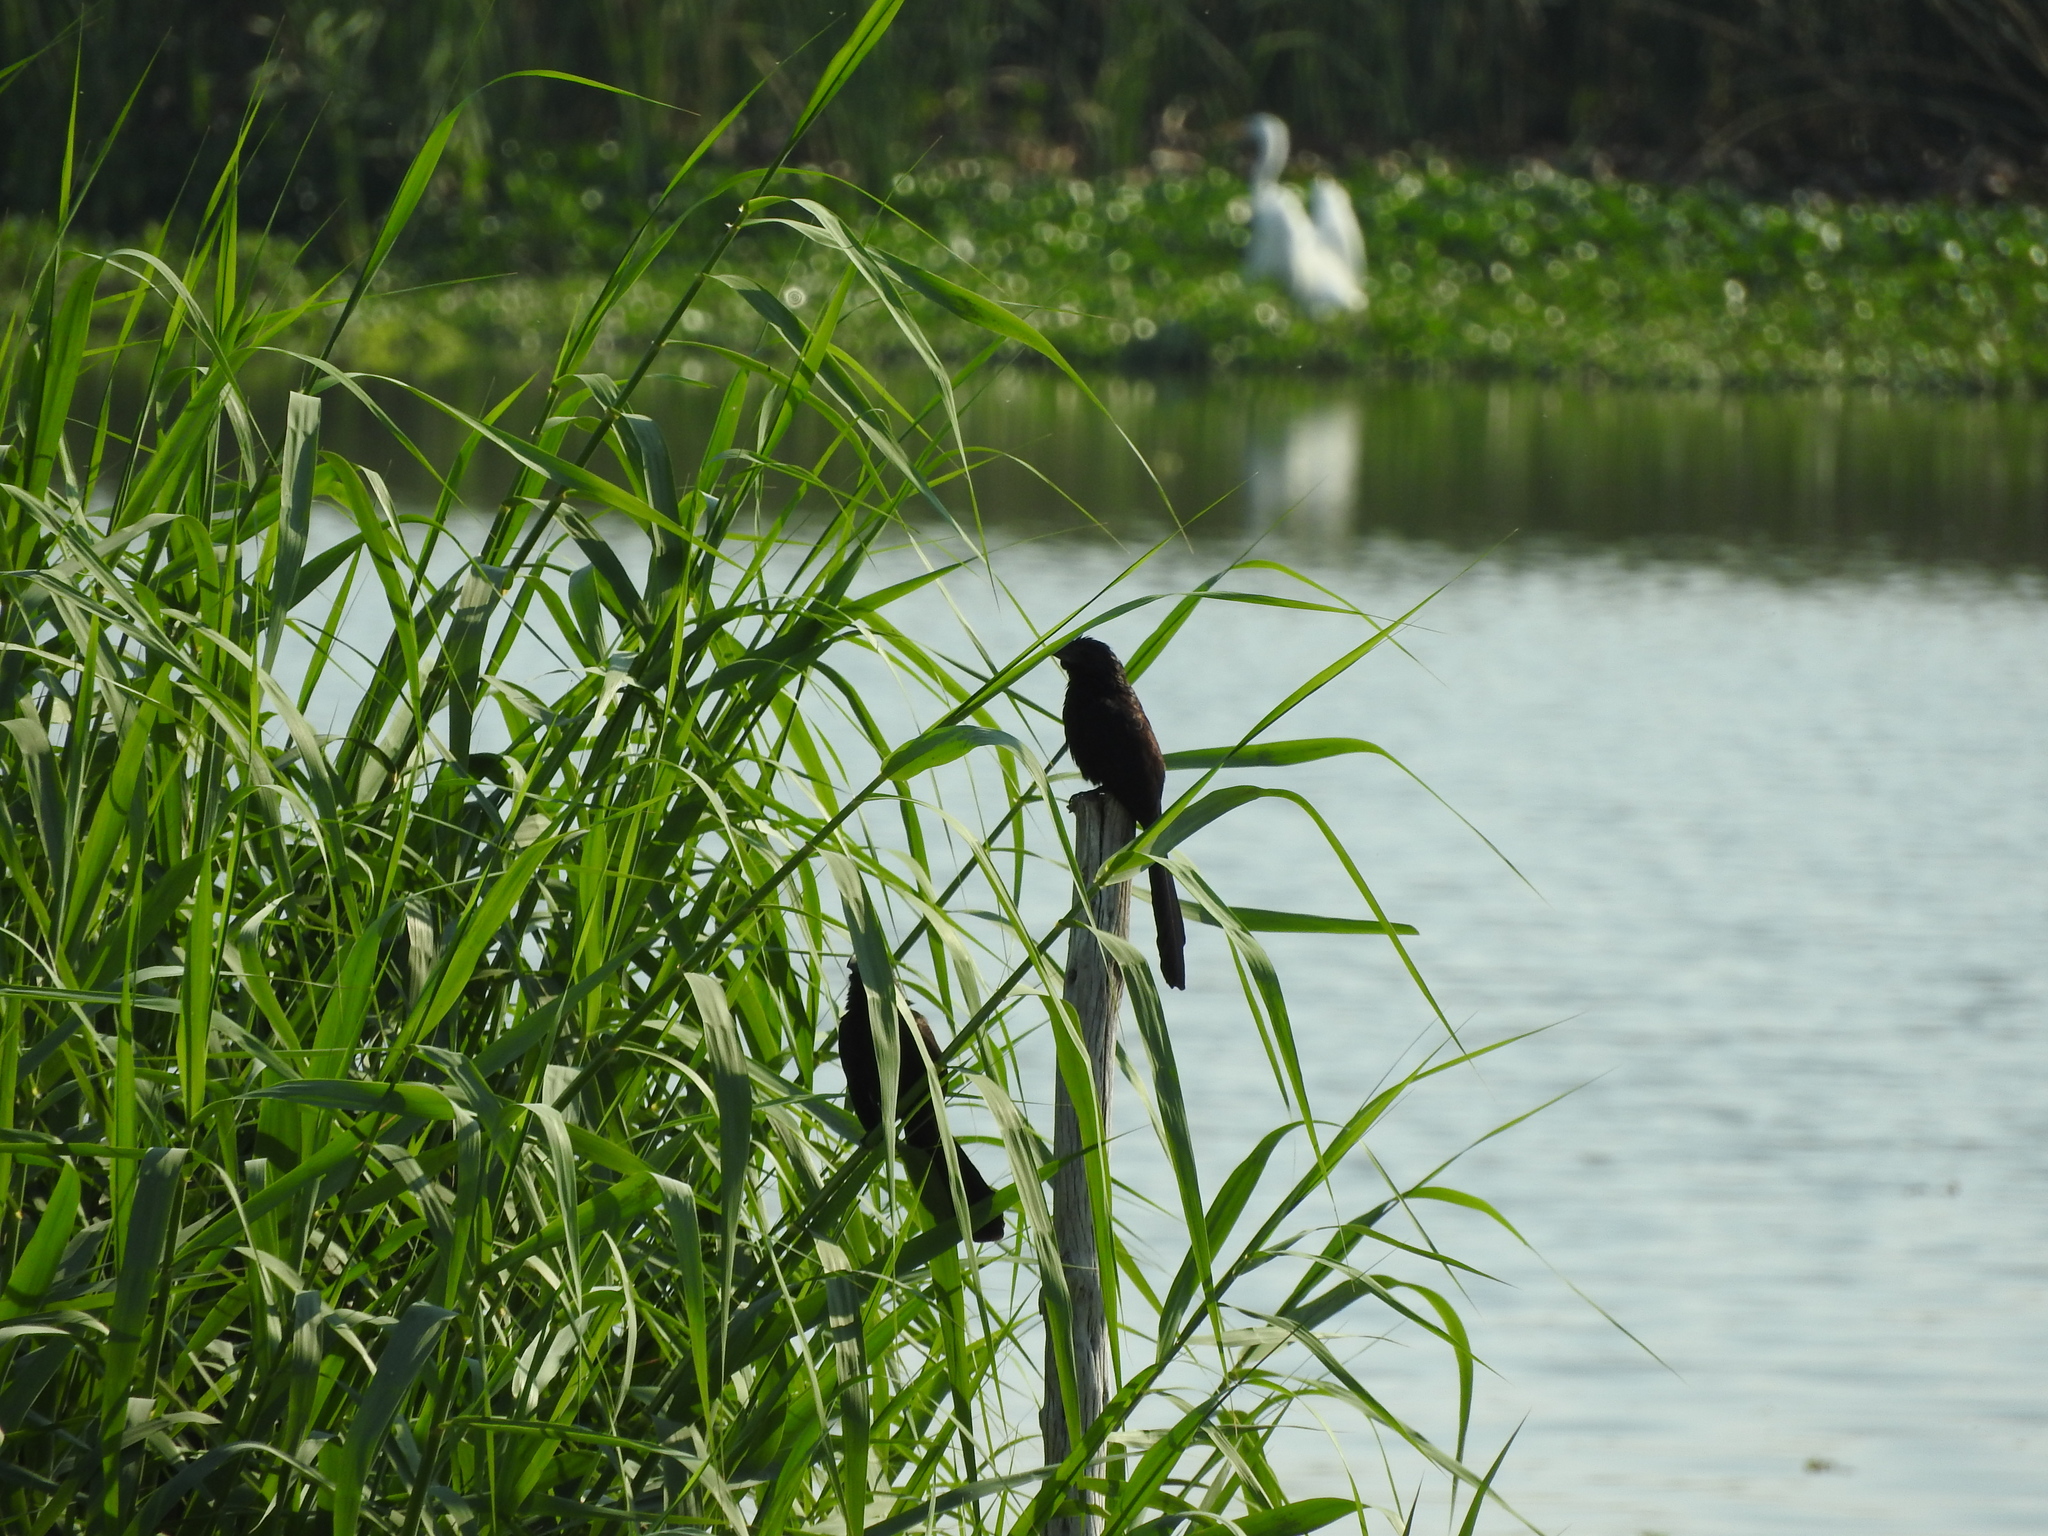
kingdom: Animalia
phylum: Chordata
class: Aves
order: Cuculiformes
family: Cuculidae
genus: Crotophaga
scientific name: Crotophaga sulcirostris
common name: Groove-billed ani
